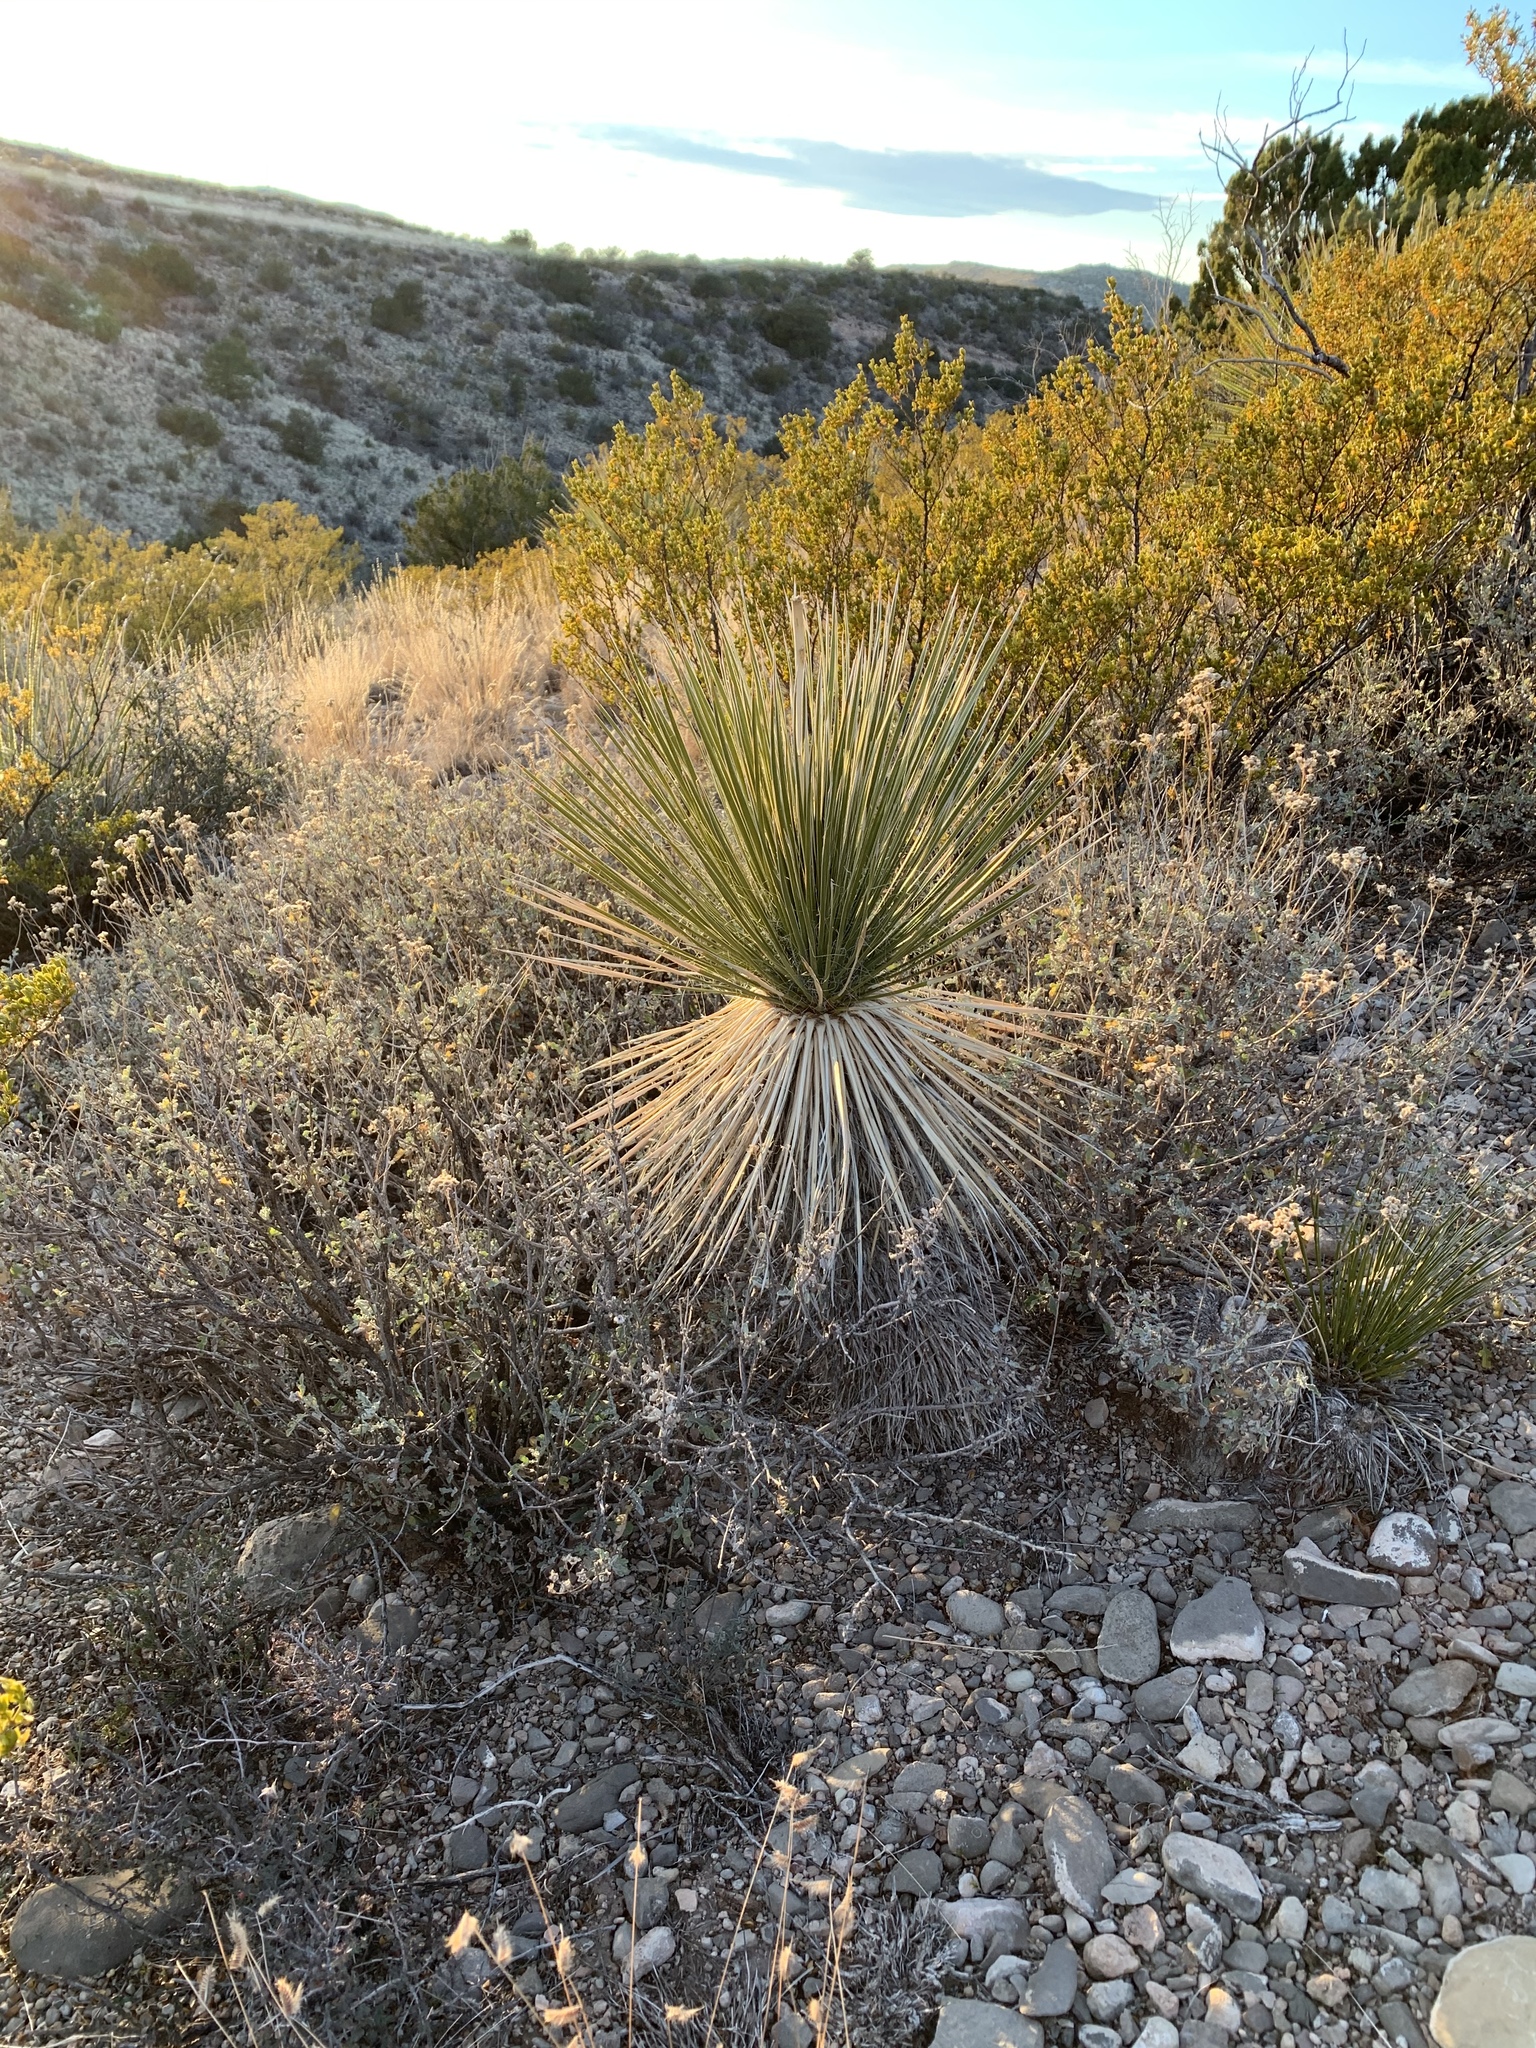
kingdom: Plantae
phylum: Tracheophyta
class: Liliopsida
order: Asparagales
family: Asparagaceae
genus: Yucca
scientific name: Yucca elata
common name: Palmella
